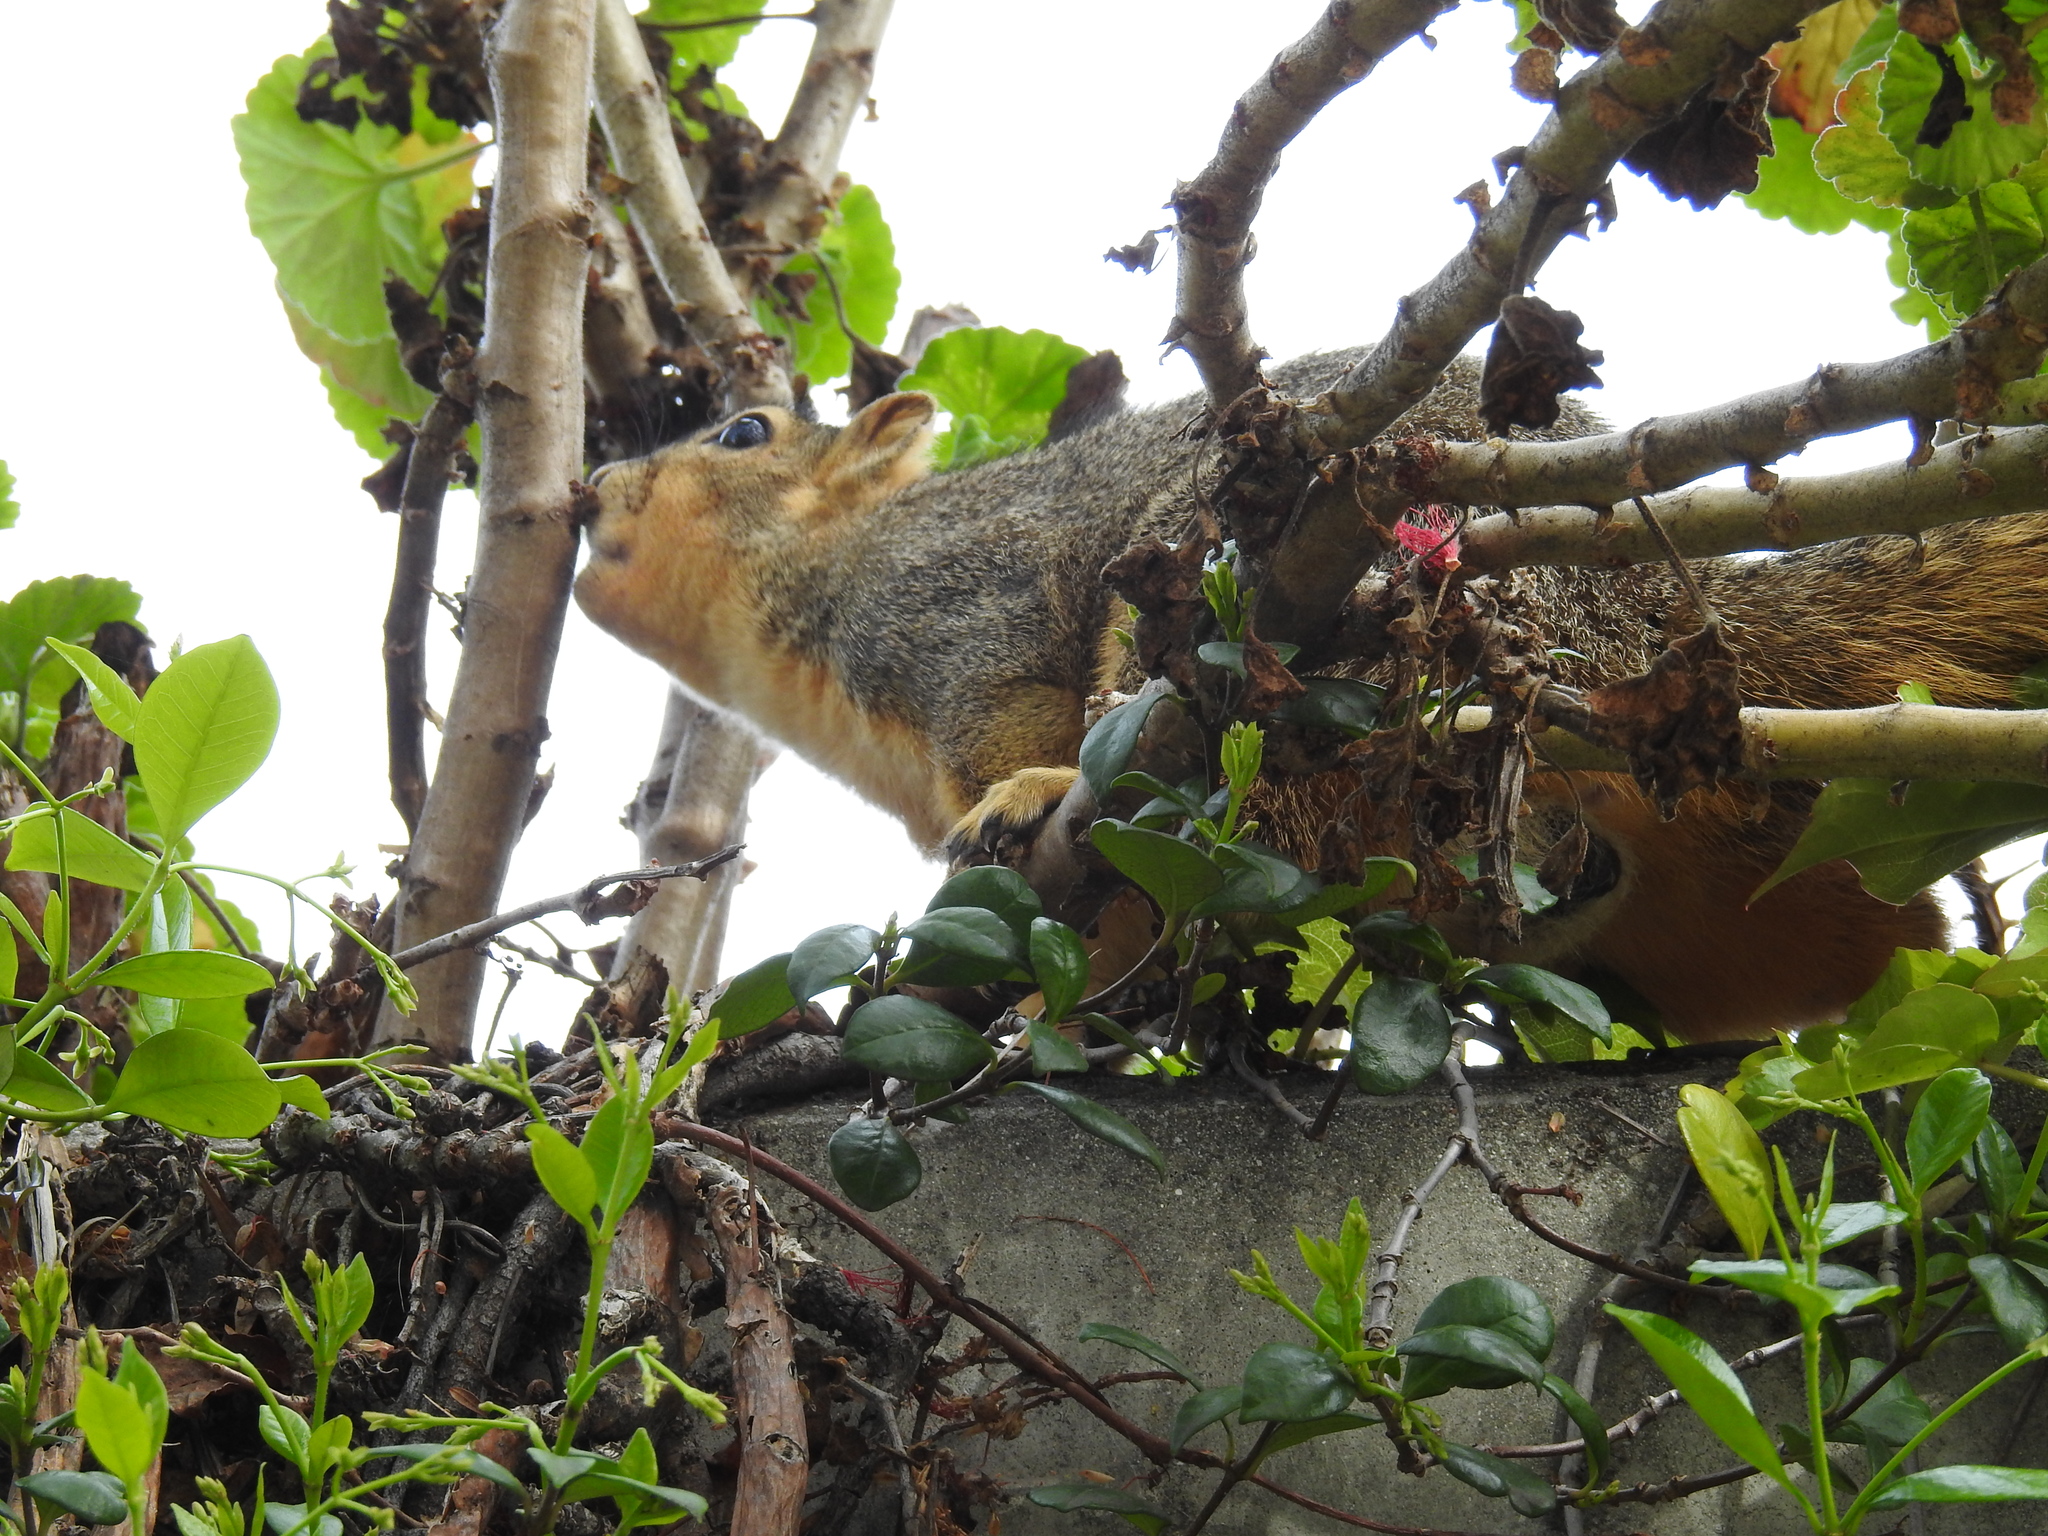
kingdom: Animalia
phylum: Chordata
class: Mammalia
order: Rodentia
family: Sciuridae
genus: Sciurus
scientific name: Sciurus niger
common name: Fox squirrel
